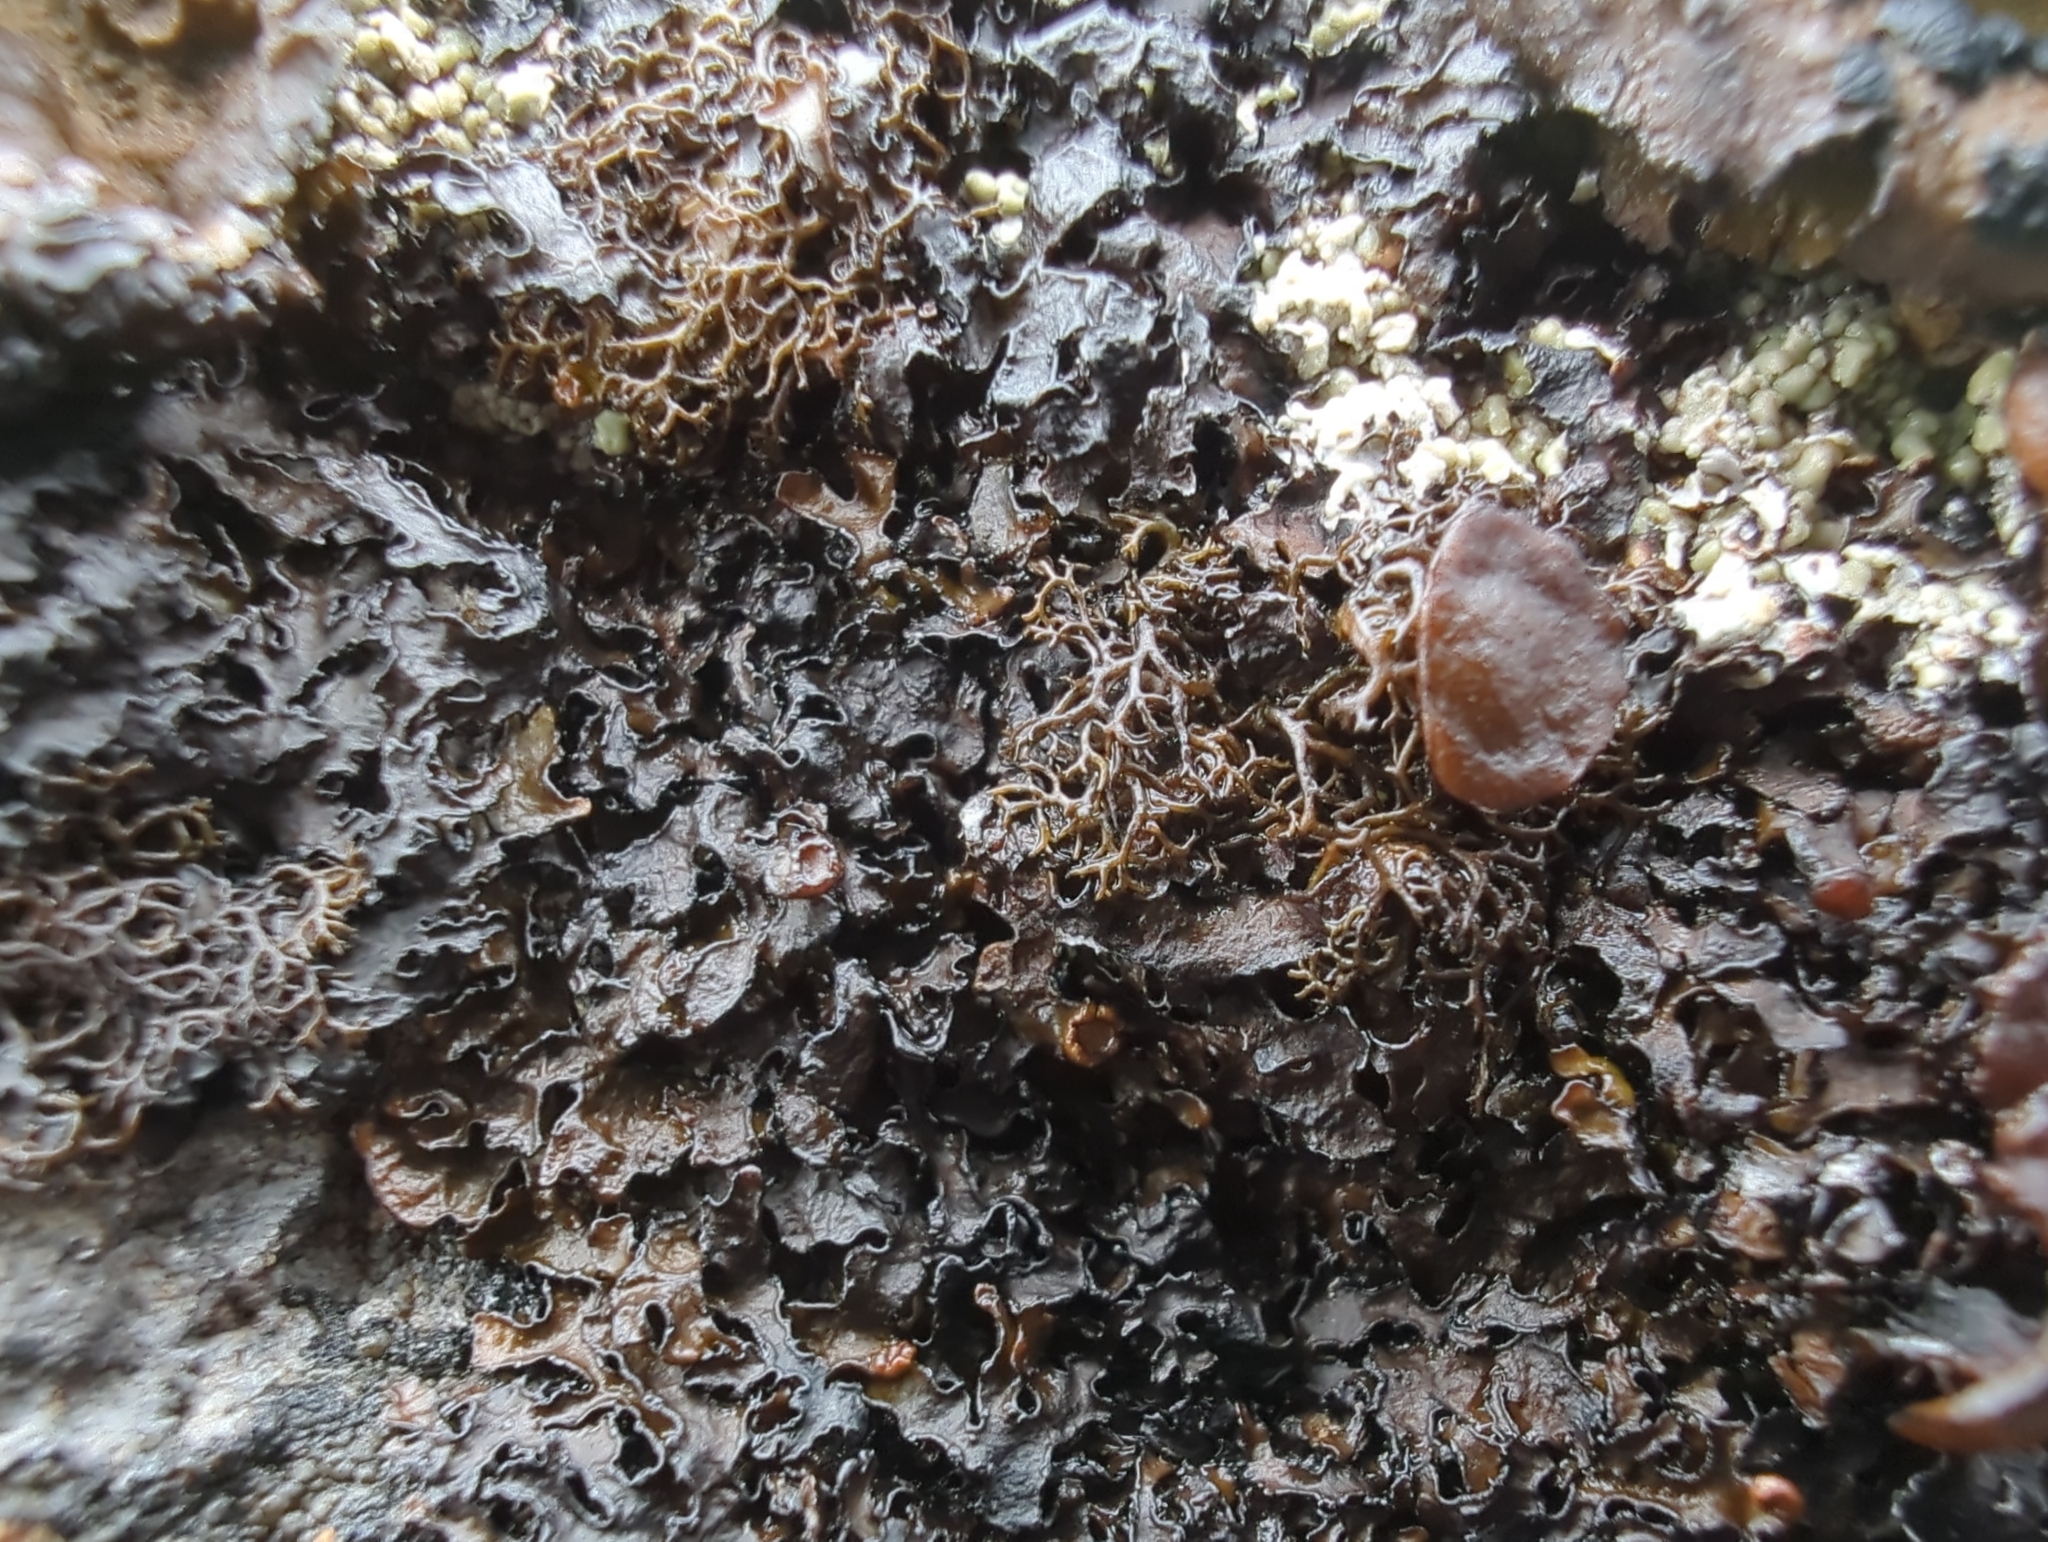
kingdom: Fungi
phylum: Ascomycota
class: Lecanoromycetes
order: Lecanorales
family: Parmeliaceae
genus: Melanelia
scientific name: Melanelia hepatizon
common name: Rimmed camouflage lichen
